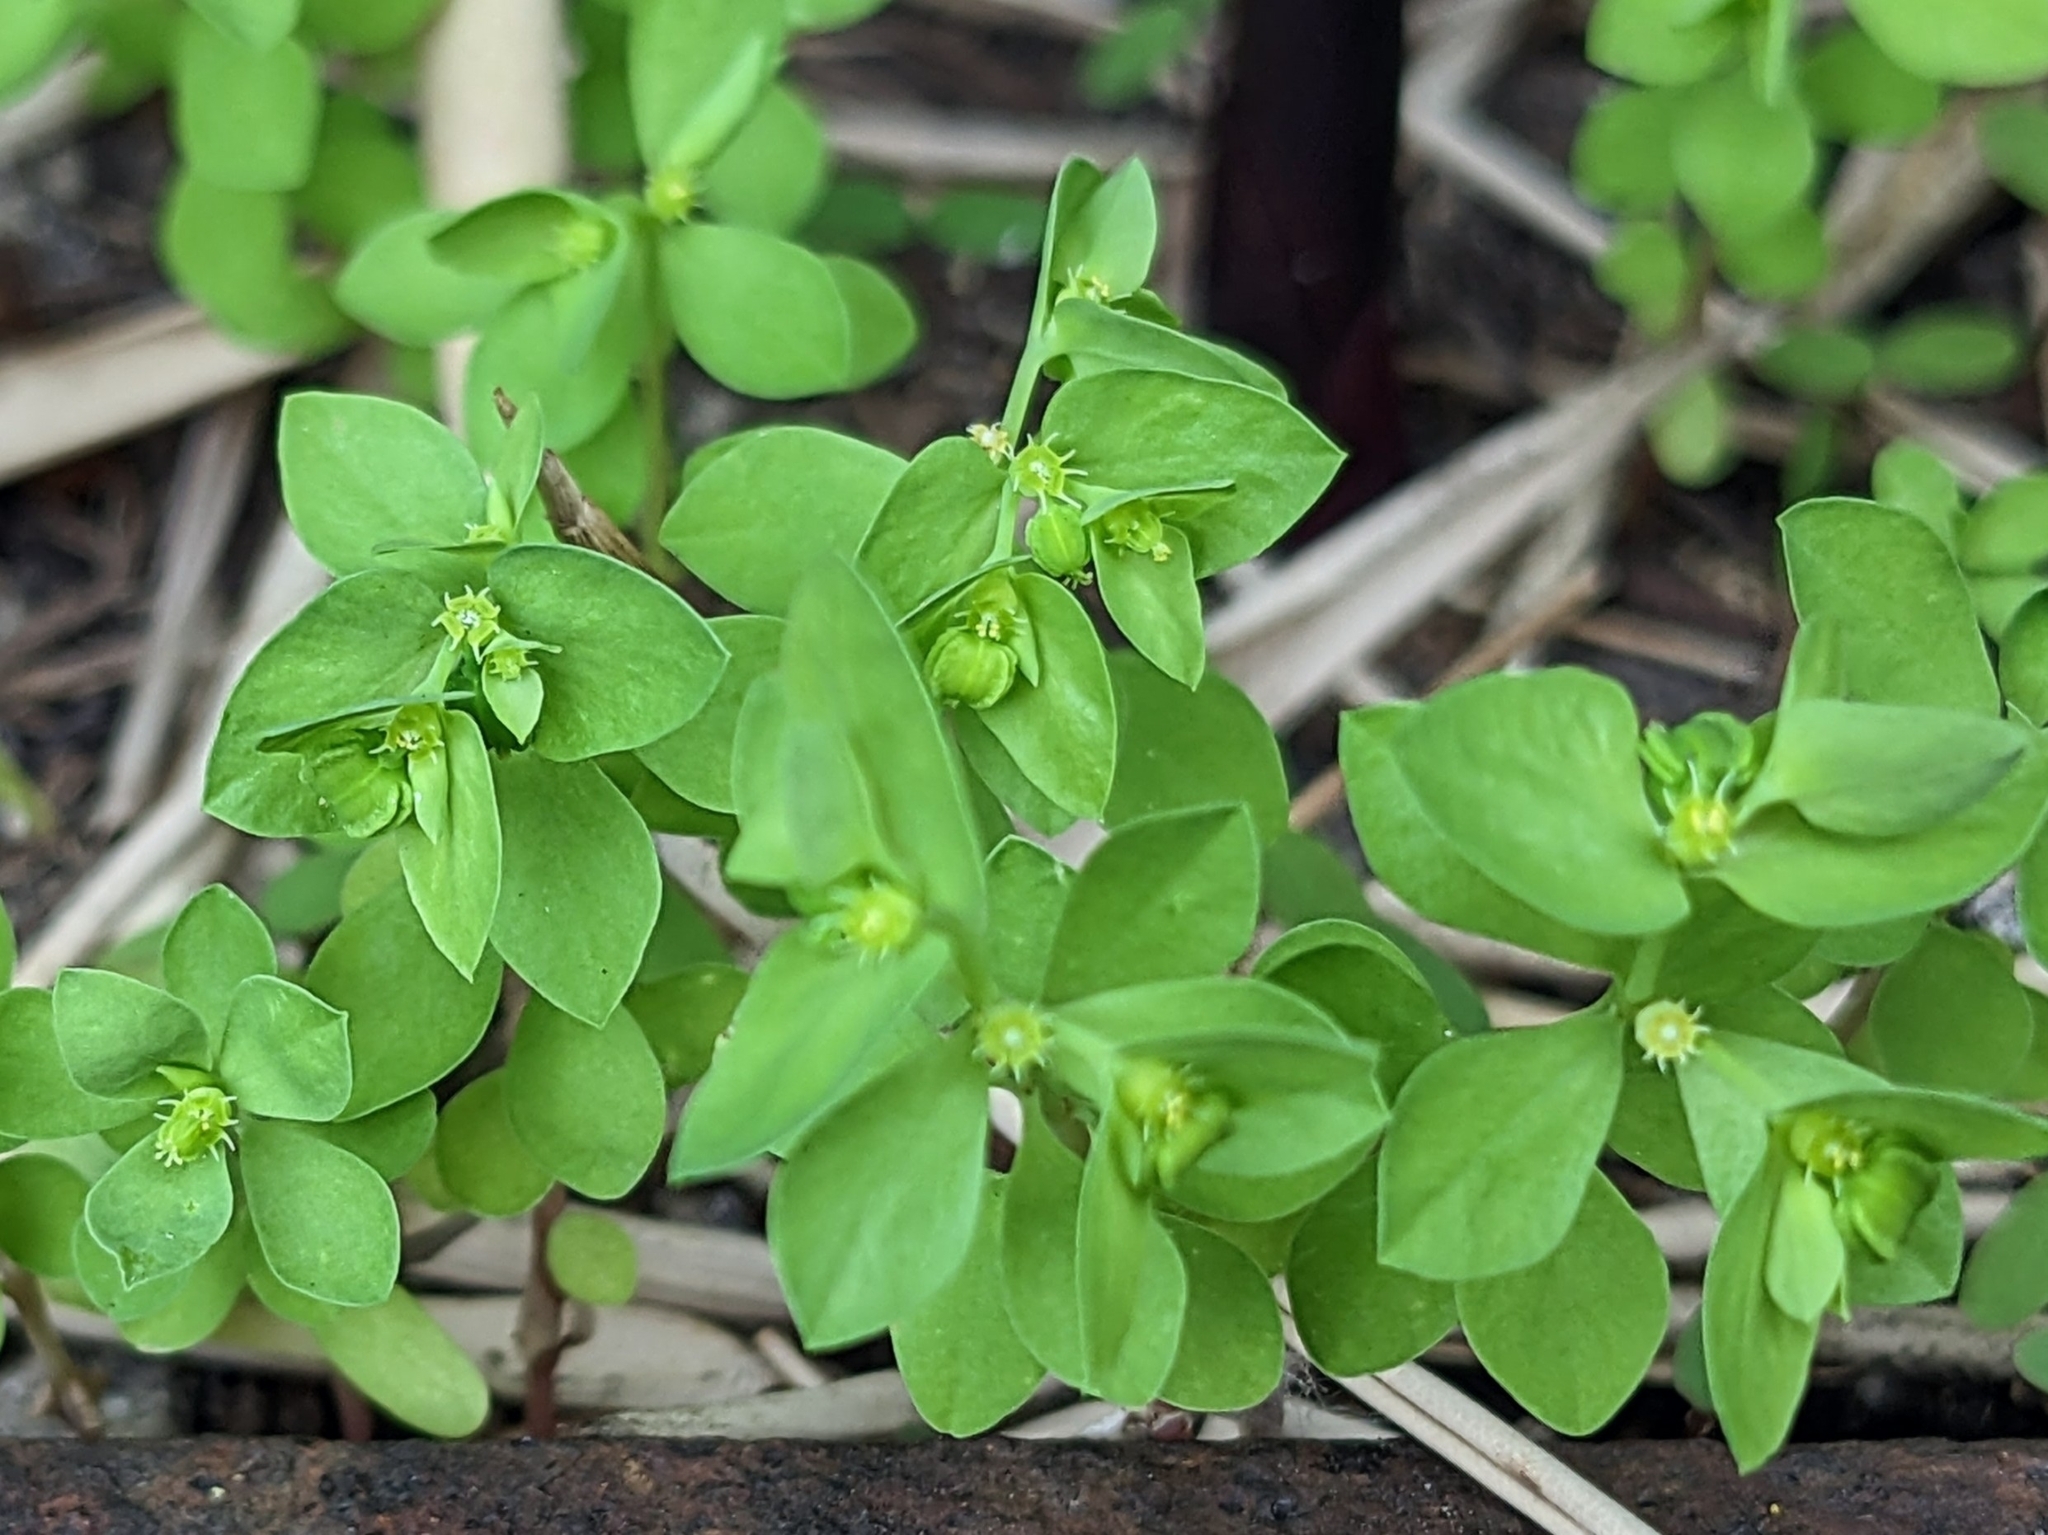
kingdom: Plantae
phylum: Tracheophyta
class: Magnoliopsida
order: Malpighiales
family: Euphorbiaceae
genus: Euphorbia
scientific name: Euphorbia peplus
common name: Petty spurge
